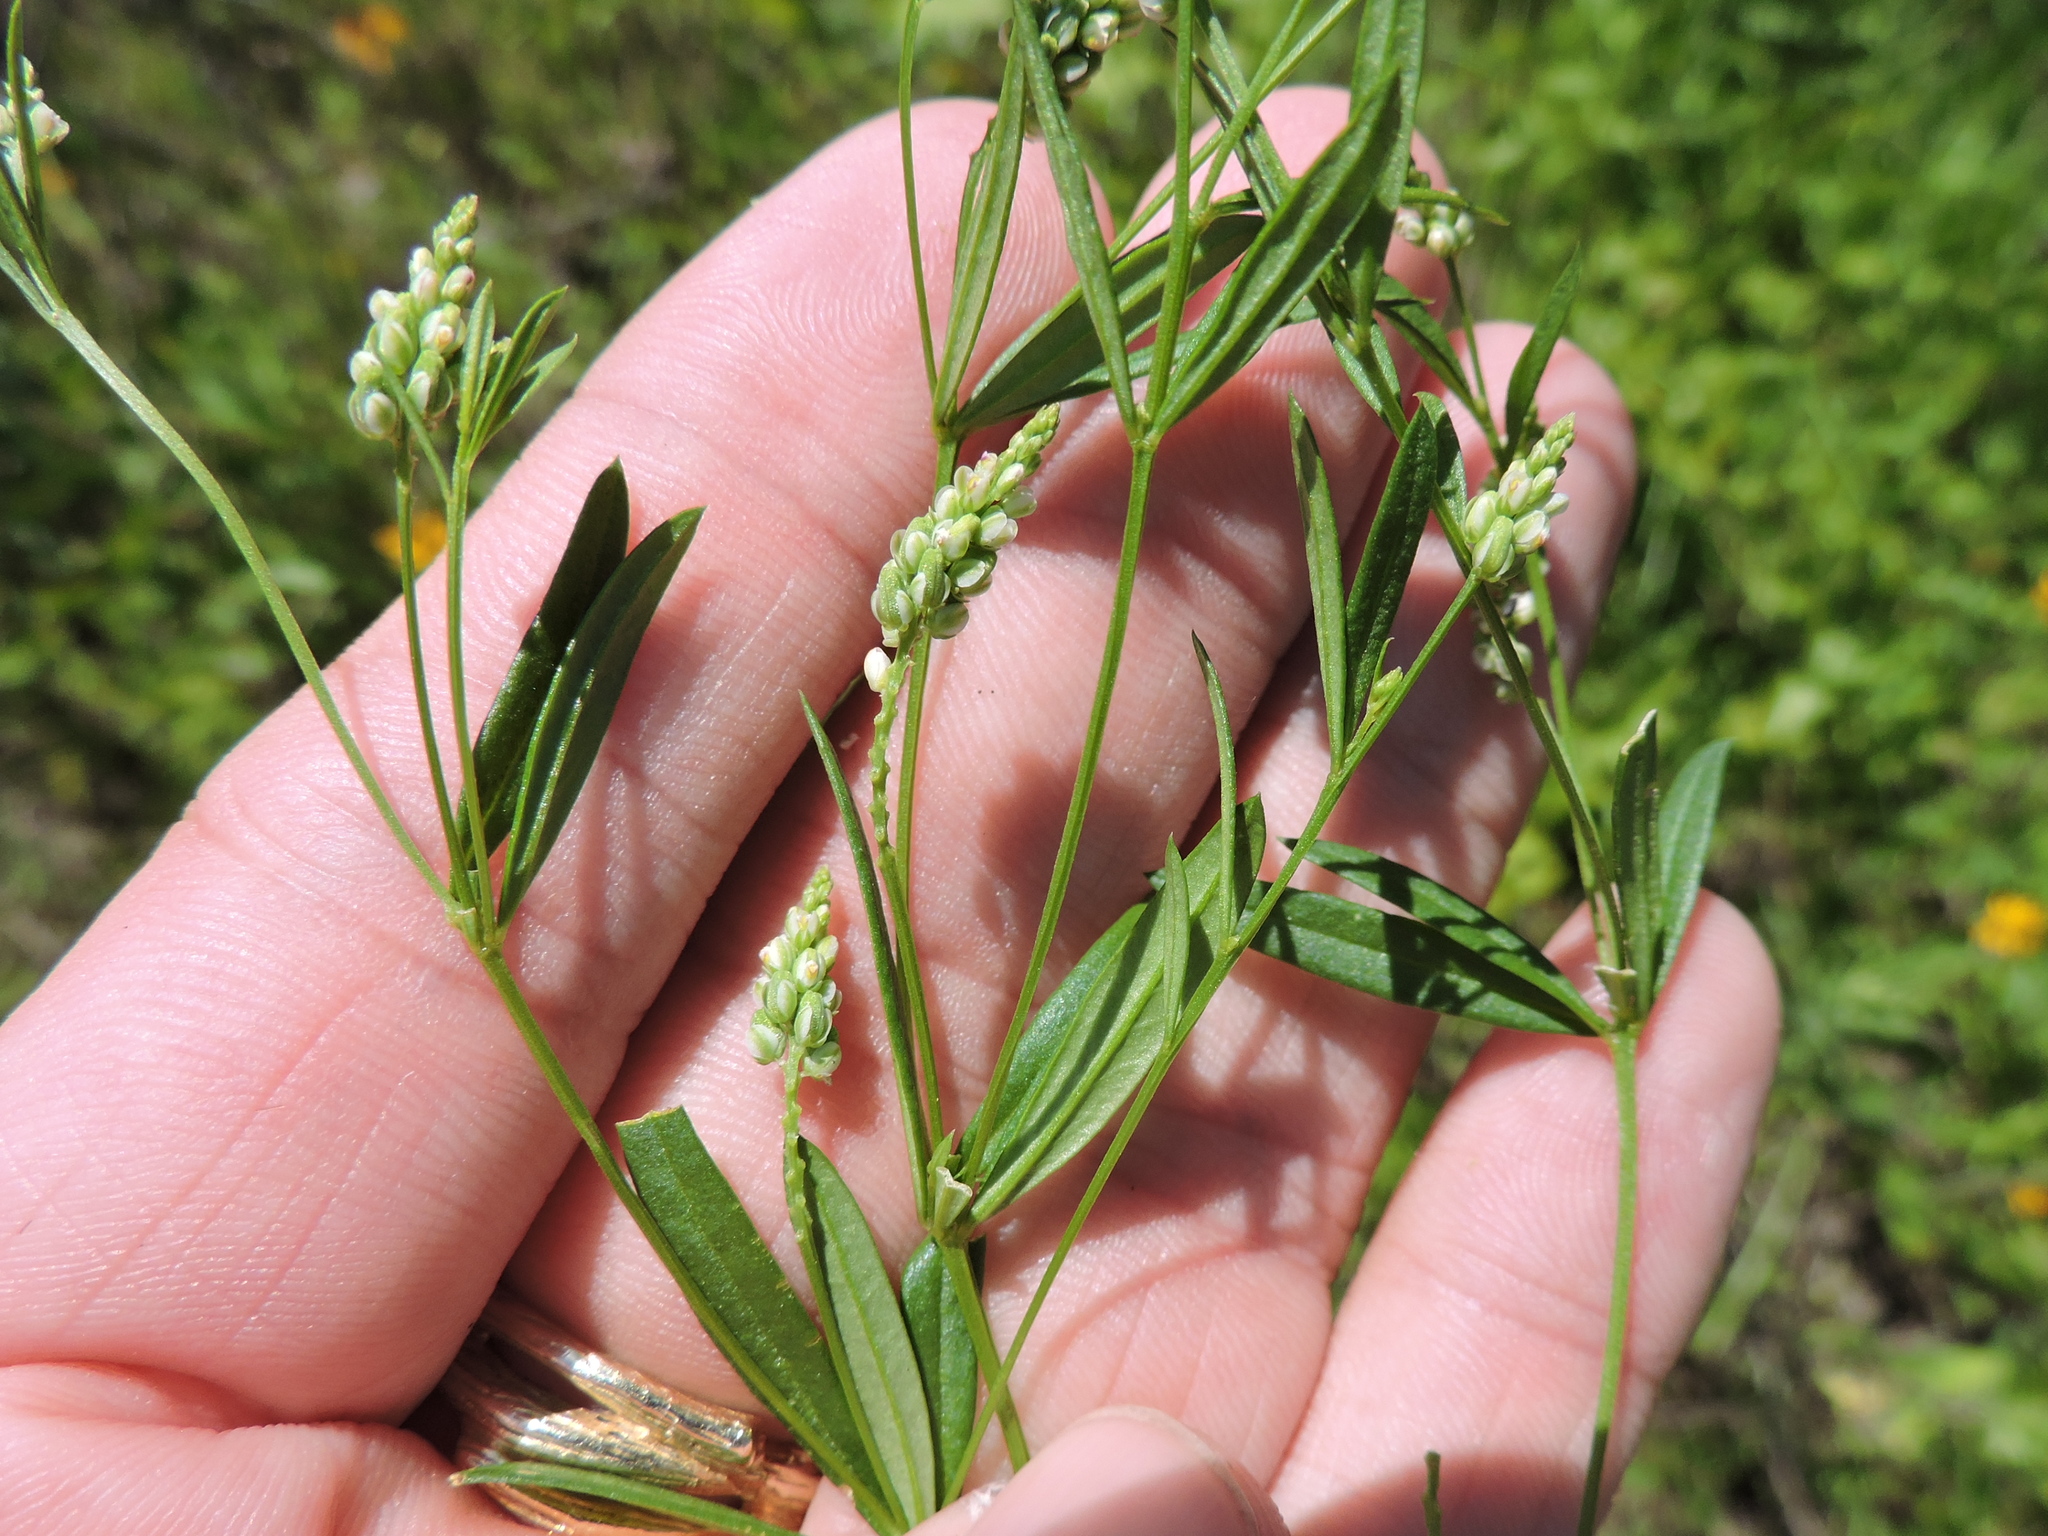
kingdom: Plantae
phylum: Tracheophyta
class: Magnoliopsida
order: Fabales
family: Polygalaceae
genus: Polygala
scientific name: Polygala verticillata
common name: Whorl milkwort
